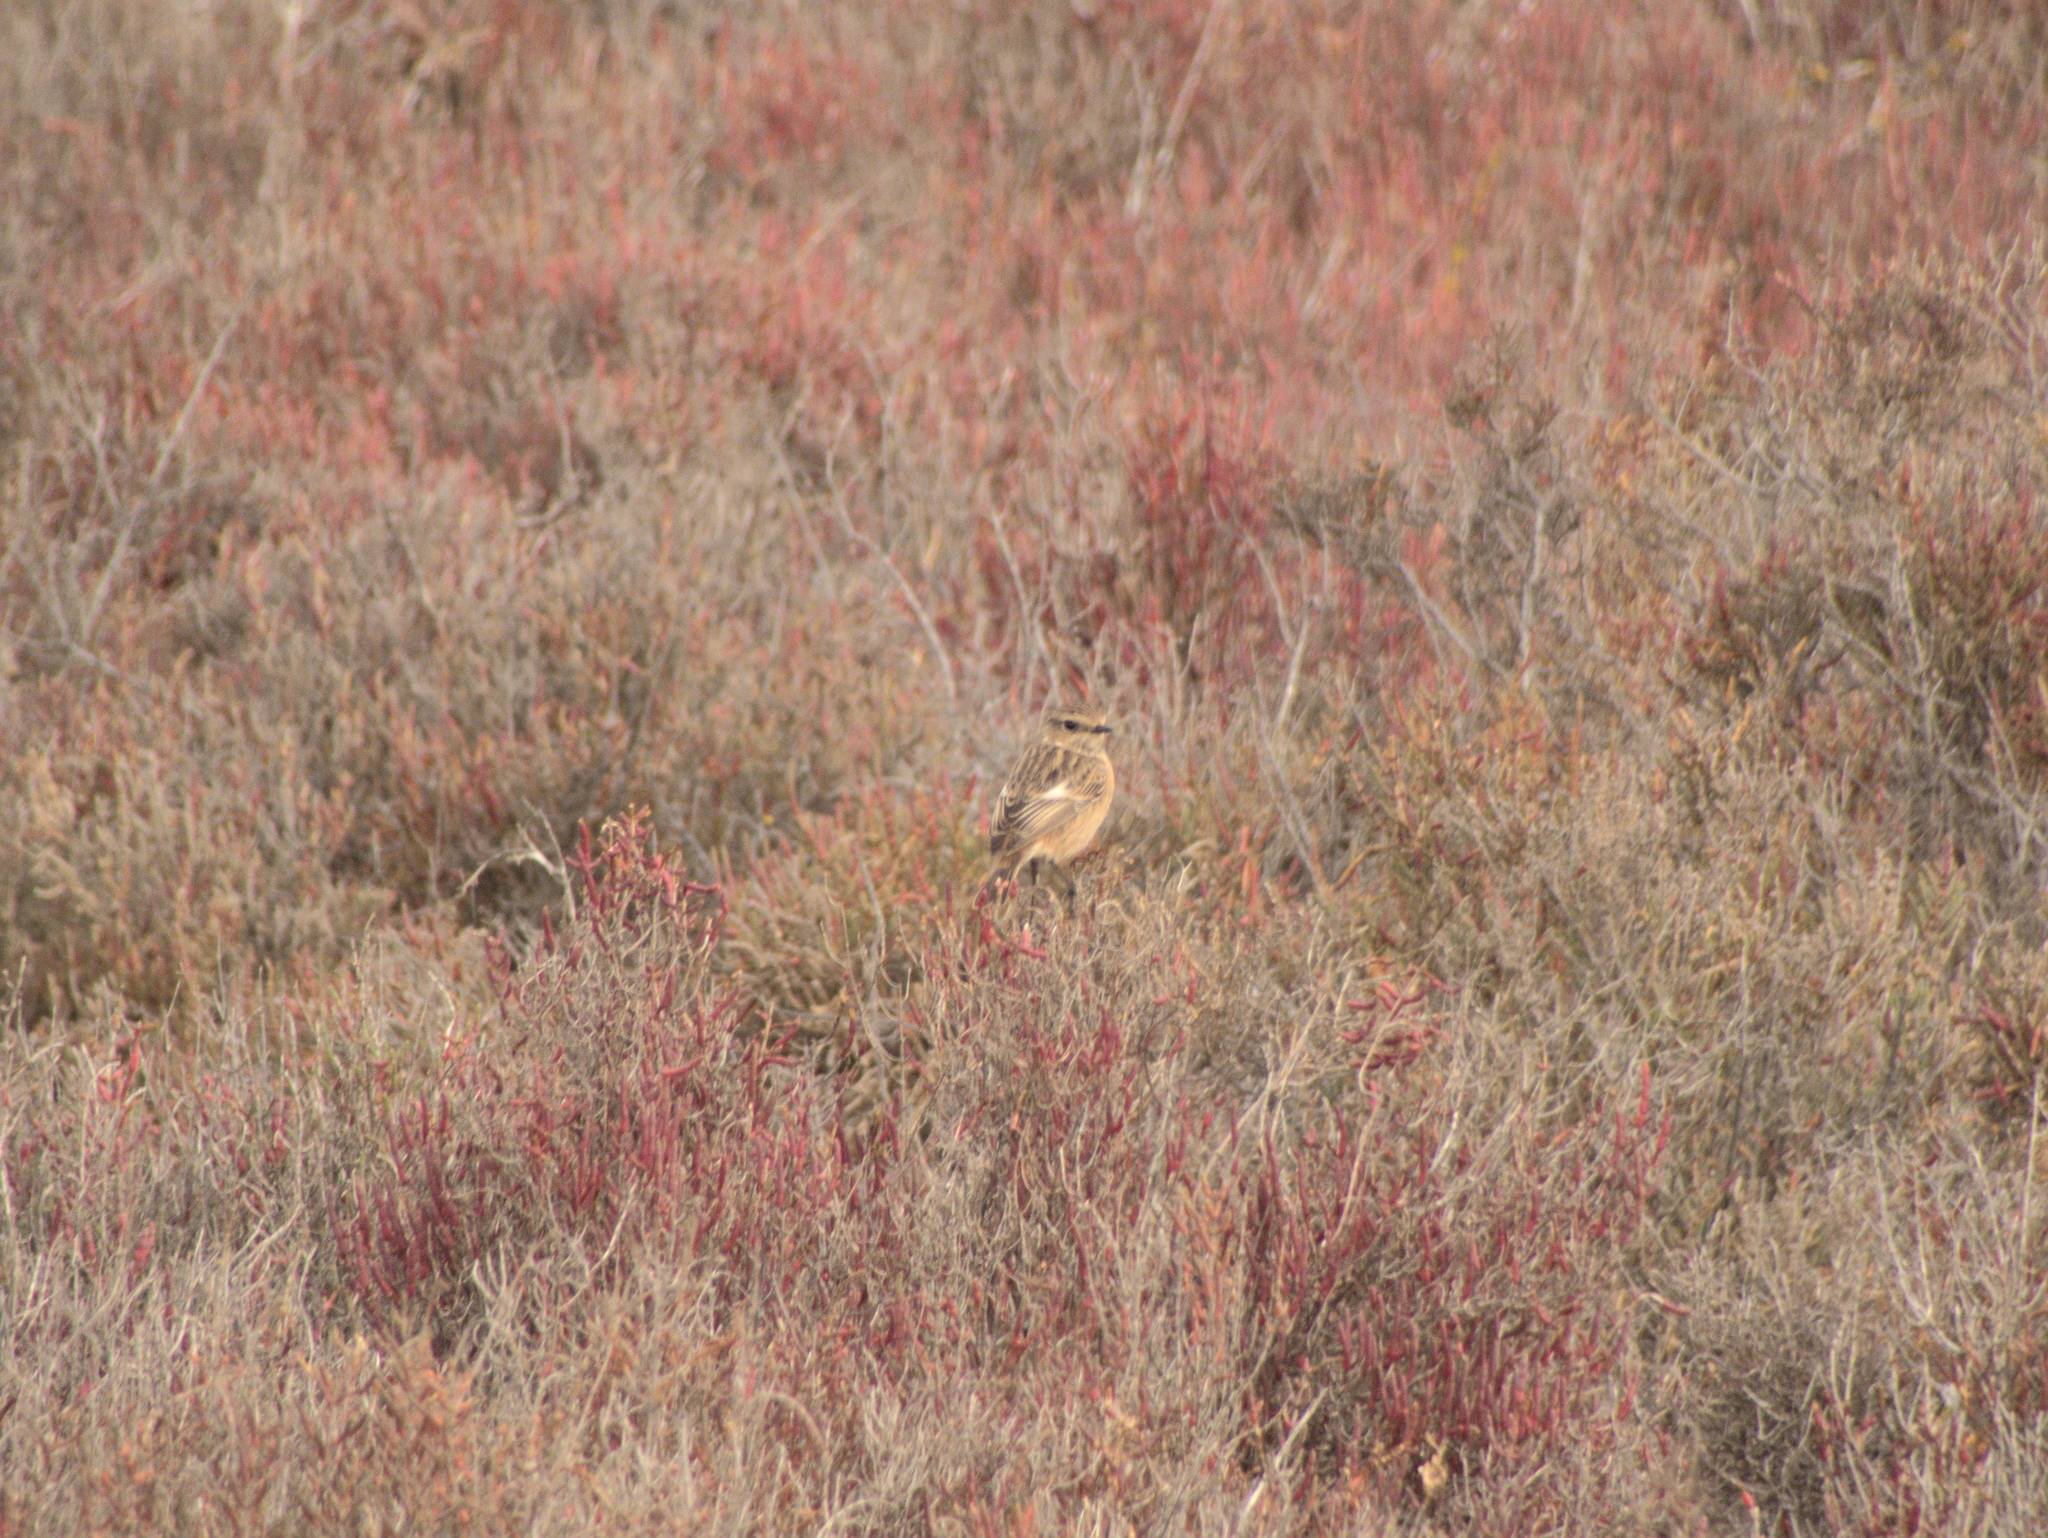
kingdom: Animalia
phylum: Chordata
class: Aves
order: Passeriformes
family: Muscicapidae
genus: Saxicola
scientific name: Saxicola rubicola
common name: European stonechat
